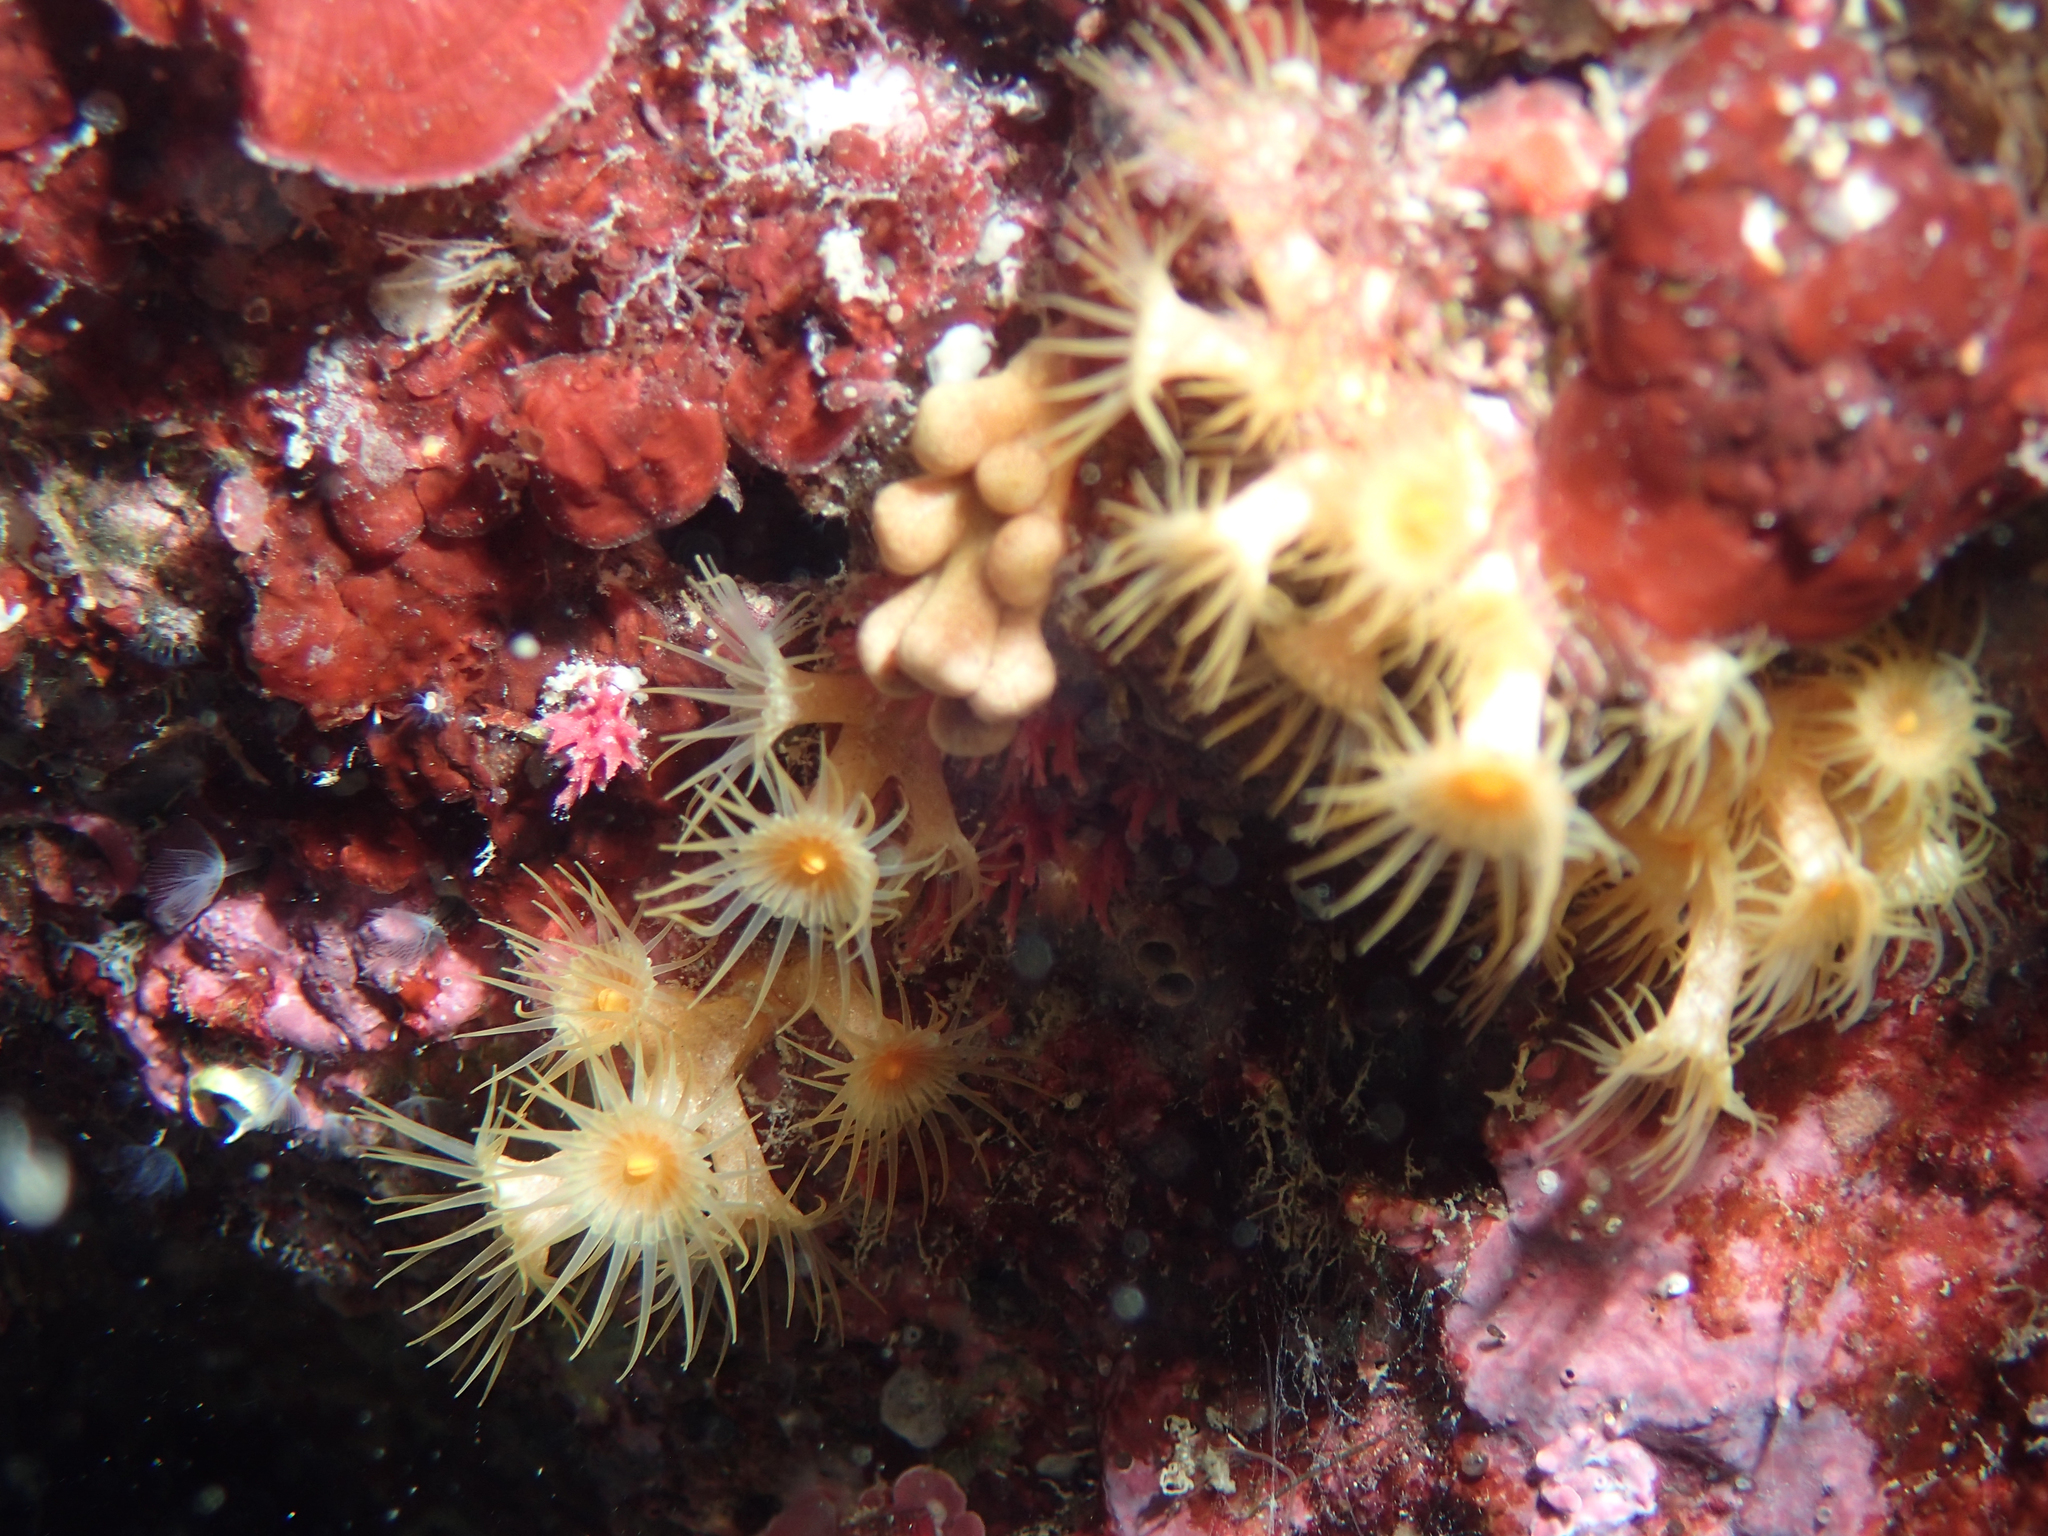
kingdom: Animalia
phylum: Cnidaria
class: Anthozoa
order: Zoantharia
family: Parazoanthidae
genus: Parazoanthus
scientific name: Parazoanthus axinellae
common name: Yellow cluster anemone
